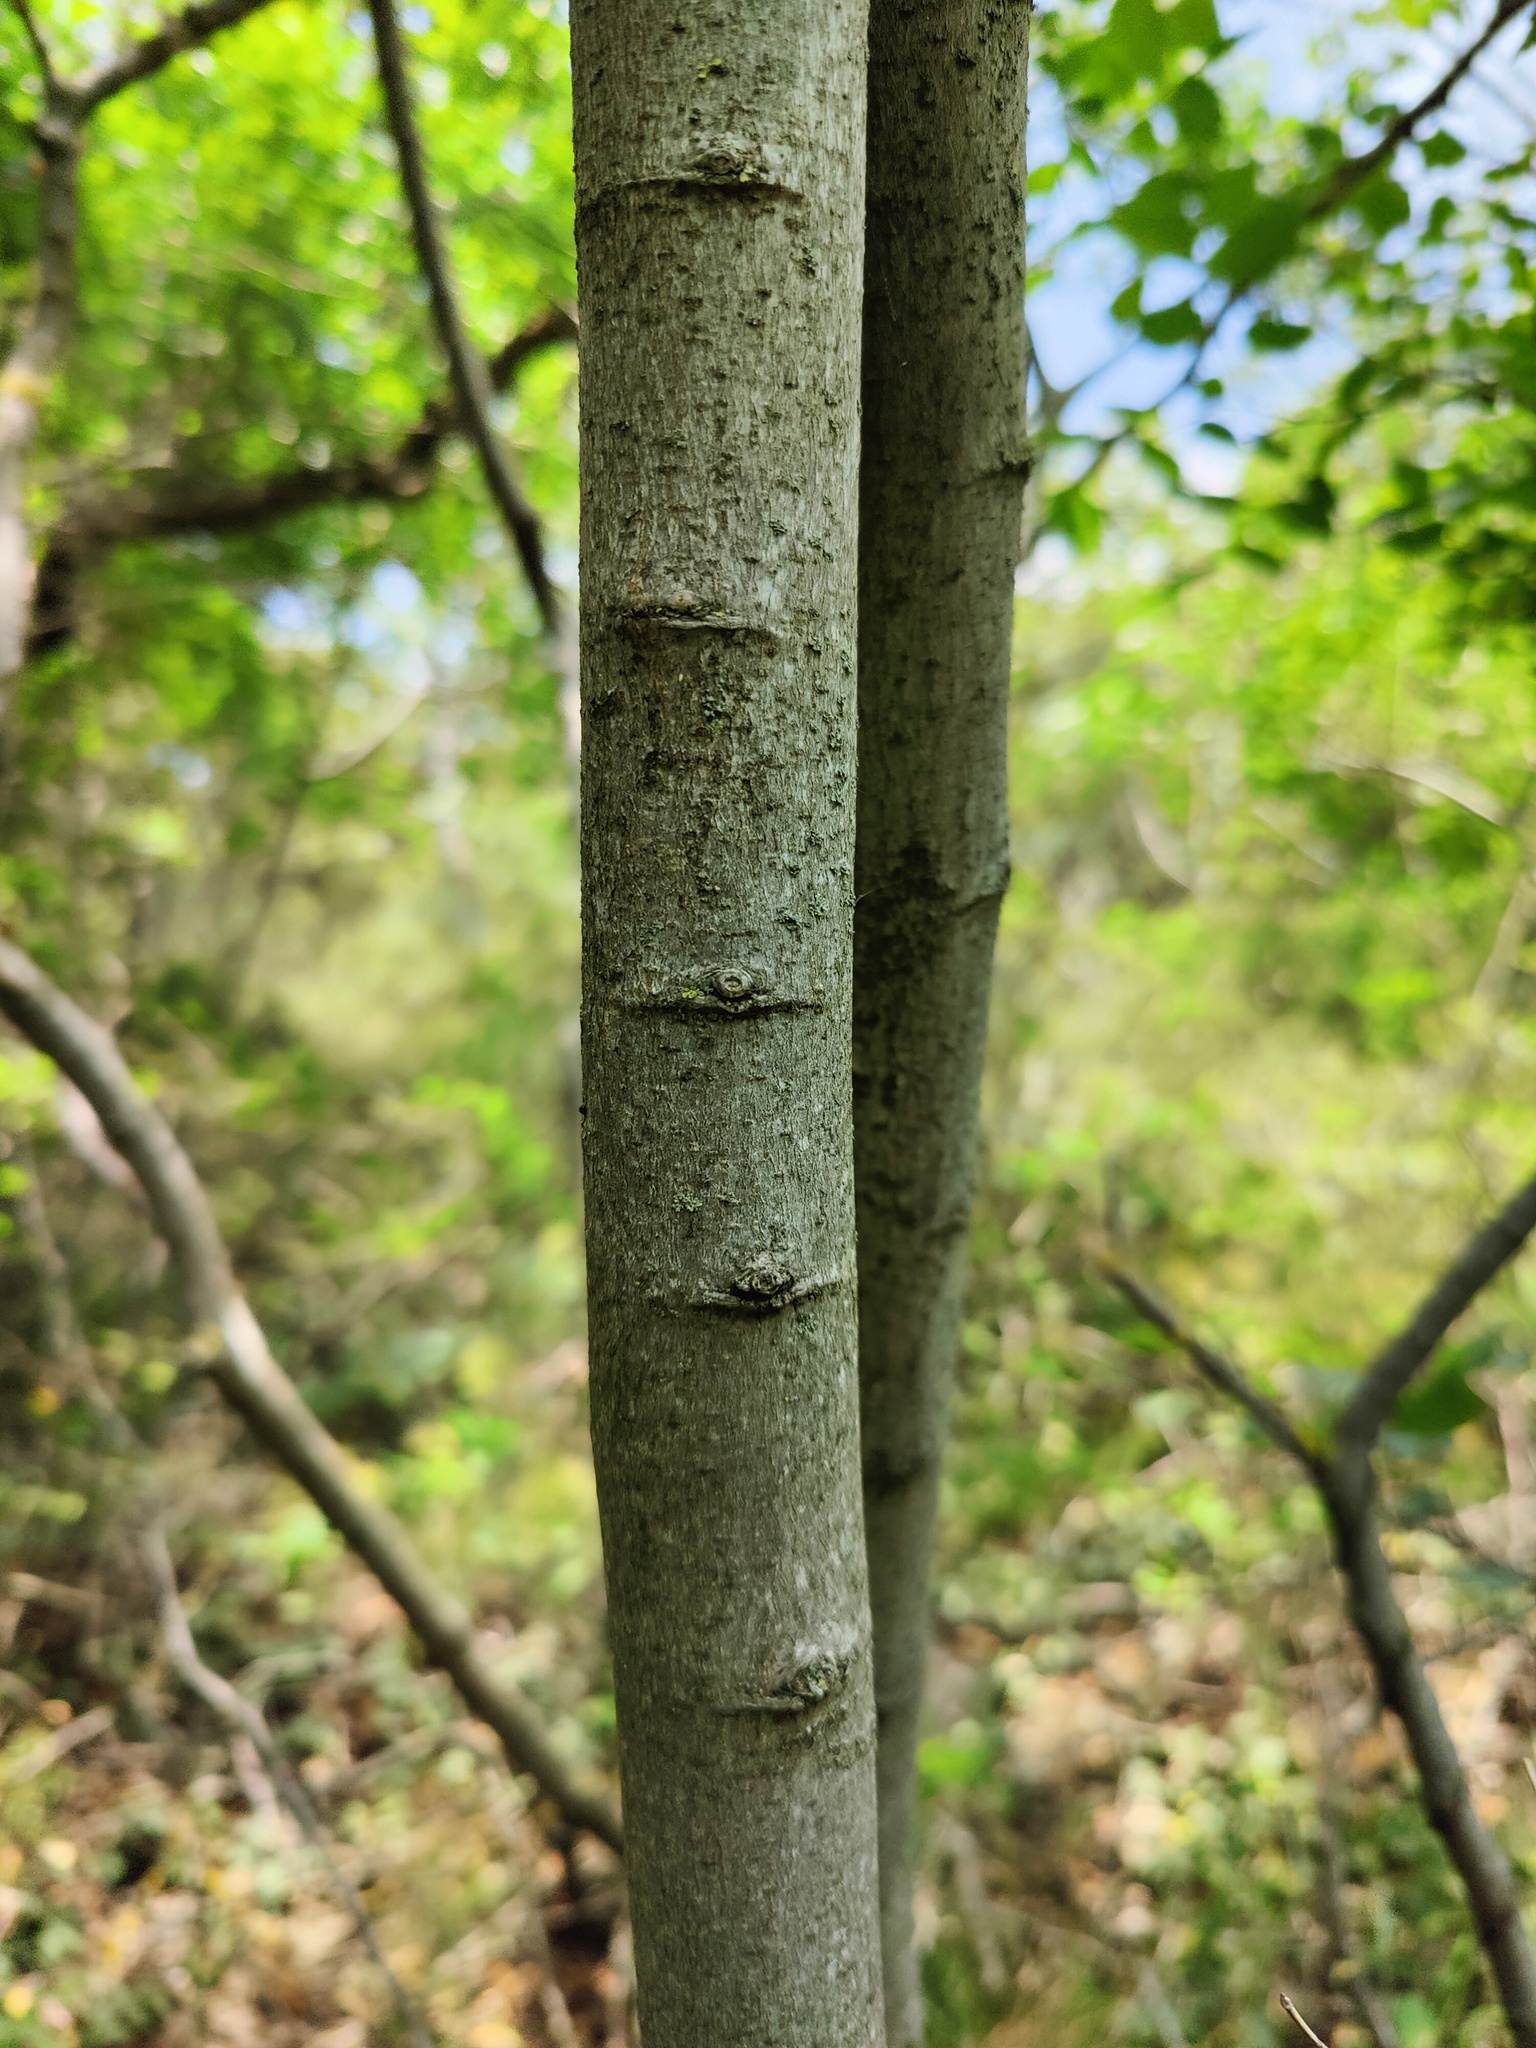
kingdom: Plantae
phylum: Tracheophyta
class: Magnoliopsida
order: Rosales
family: Cannabaceae
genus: Celtis
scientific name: Celtis glabrata
